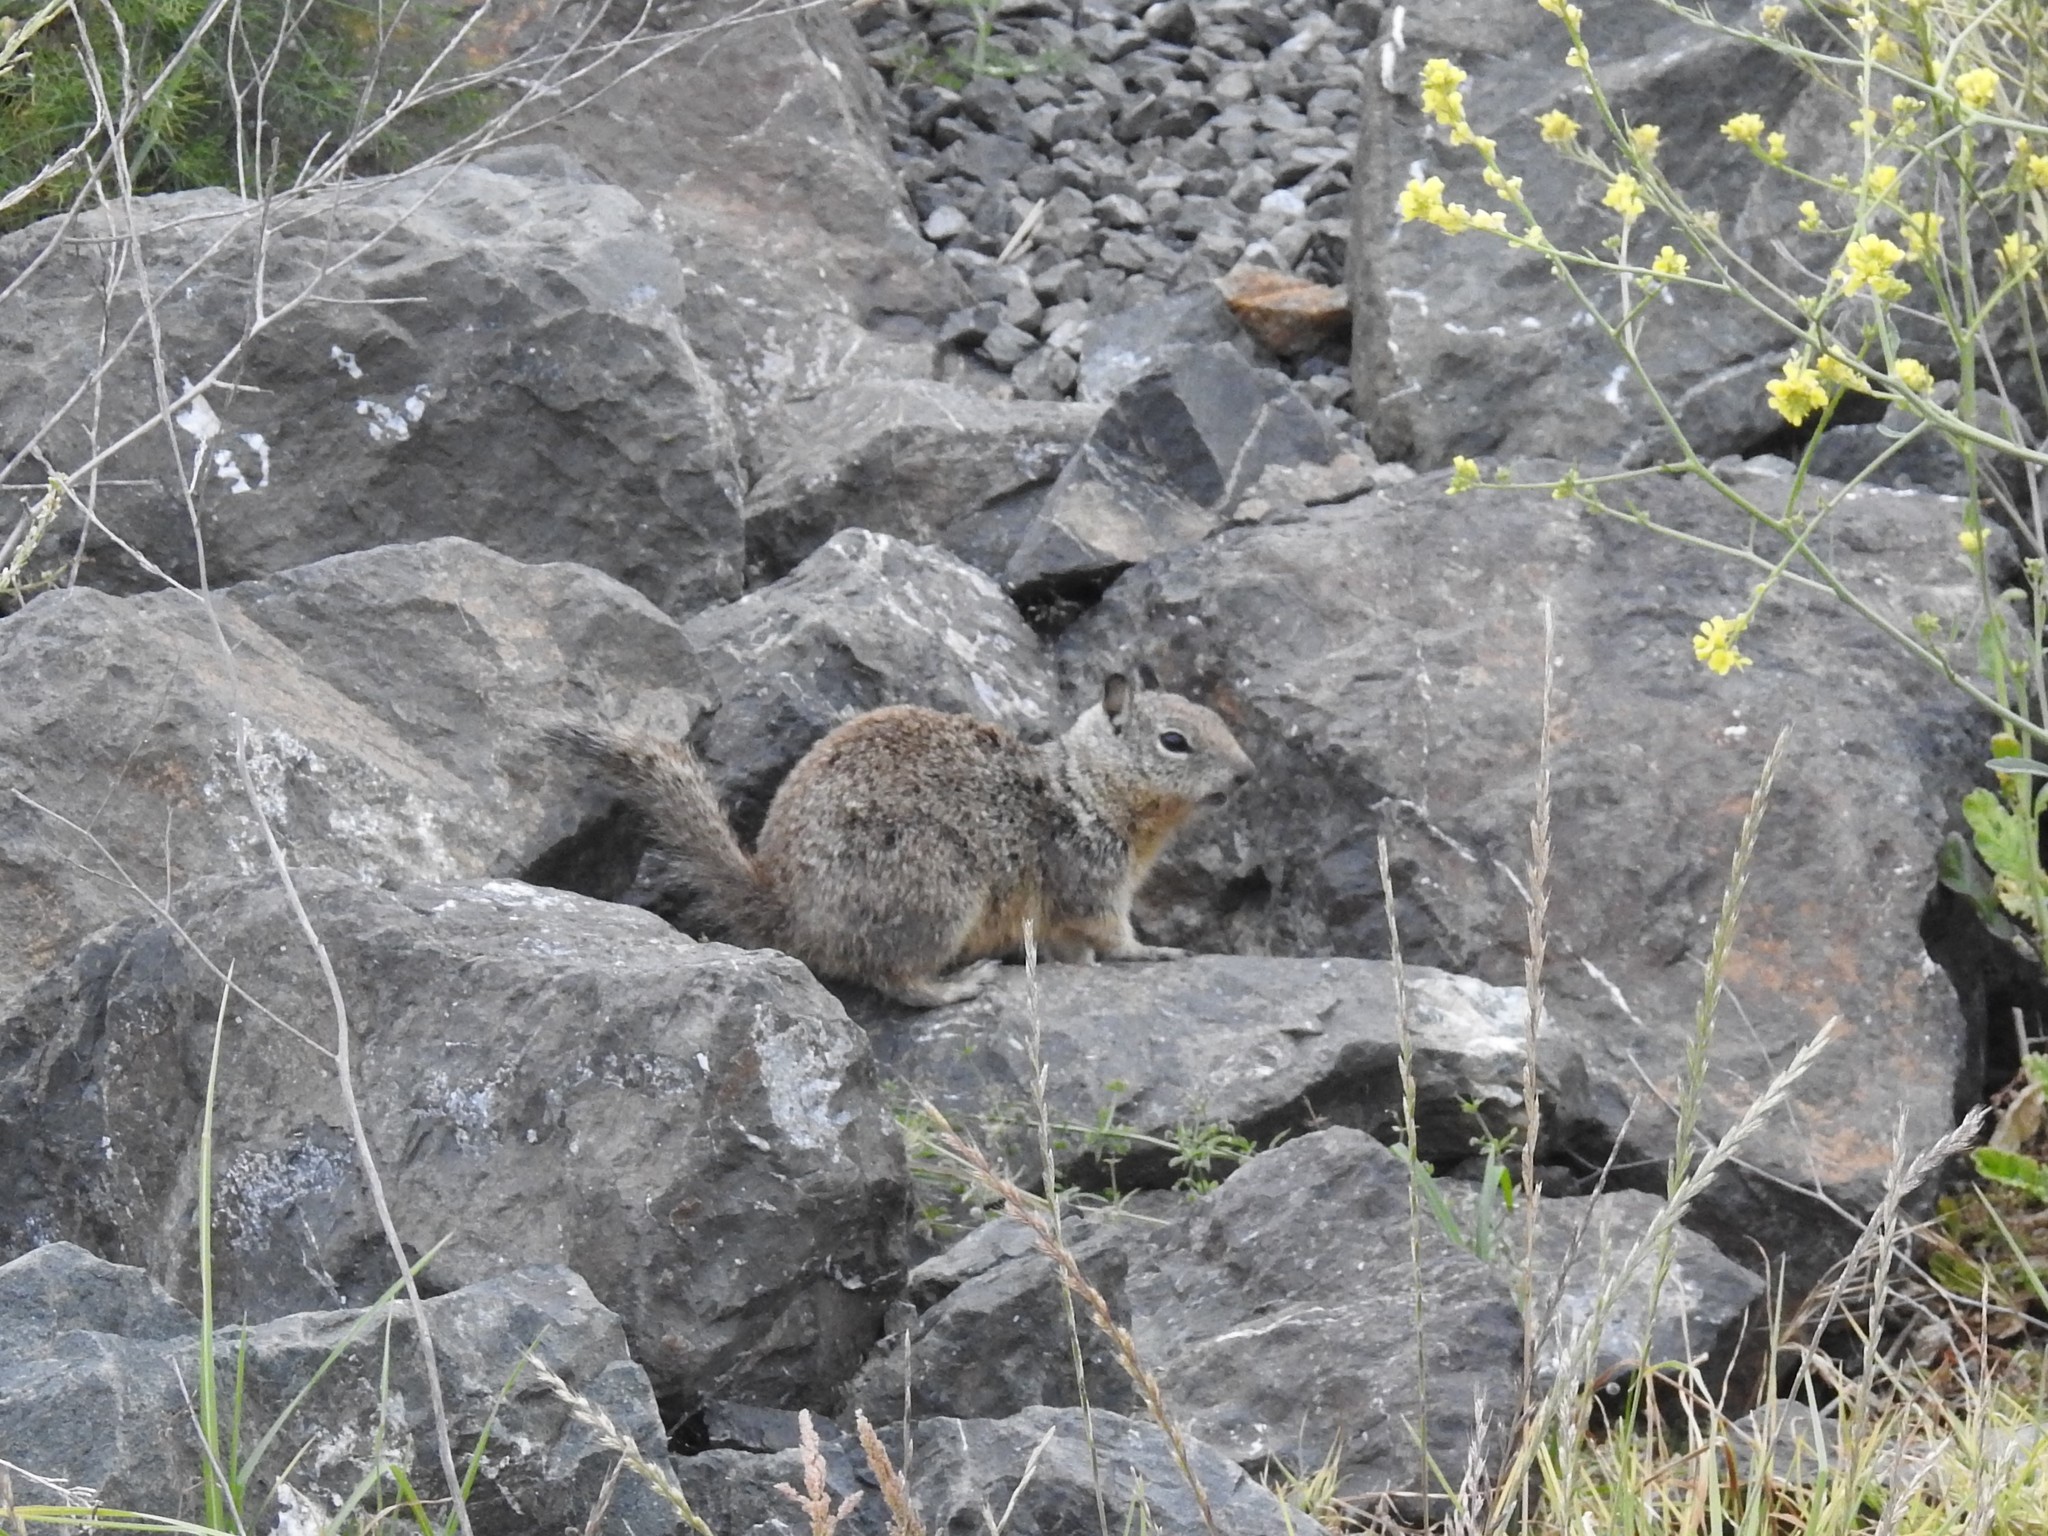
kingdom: Animalia
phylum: Chordata
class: Mammalia
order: Rodentia
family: Sciuridae
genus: Otospermophilus
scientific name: Otospermophilus beecheyi
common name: California ground squirrel
